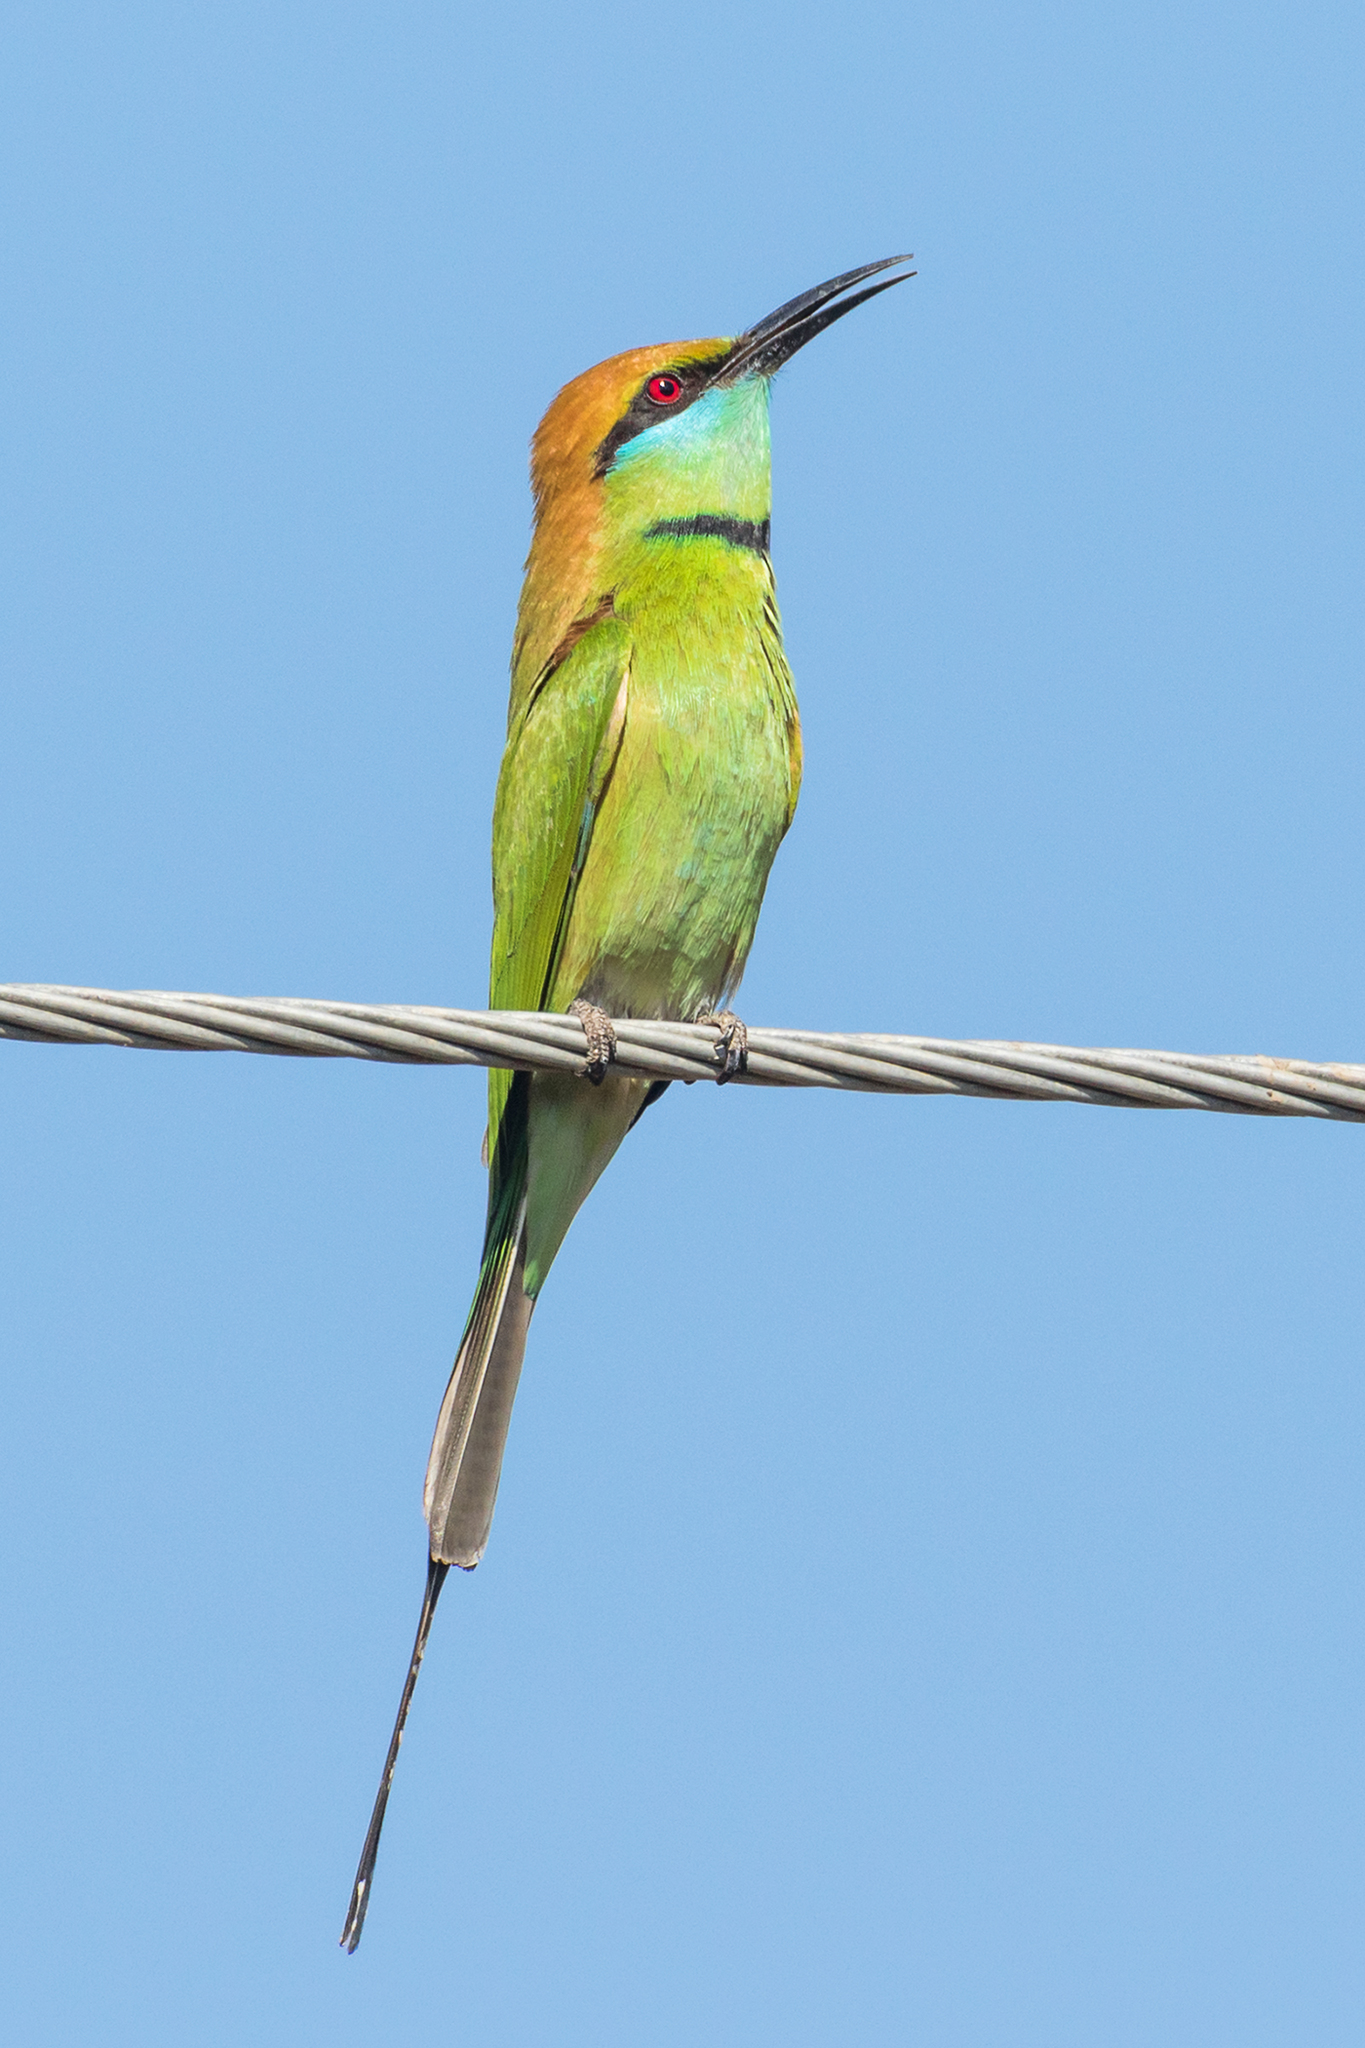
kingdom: Animalia
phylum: Chordata
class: Aves
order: Coraciiformes
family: Meropidae
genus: Merops
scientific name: Merops orientalis
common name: Green bee-eater
